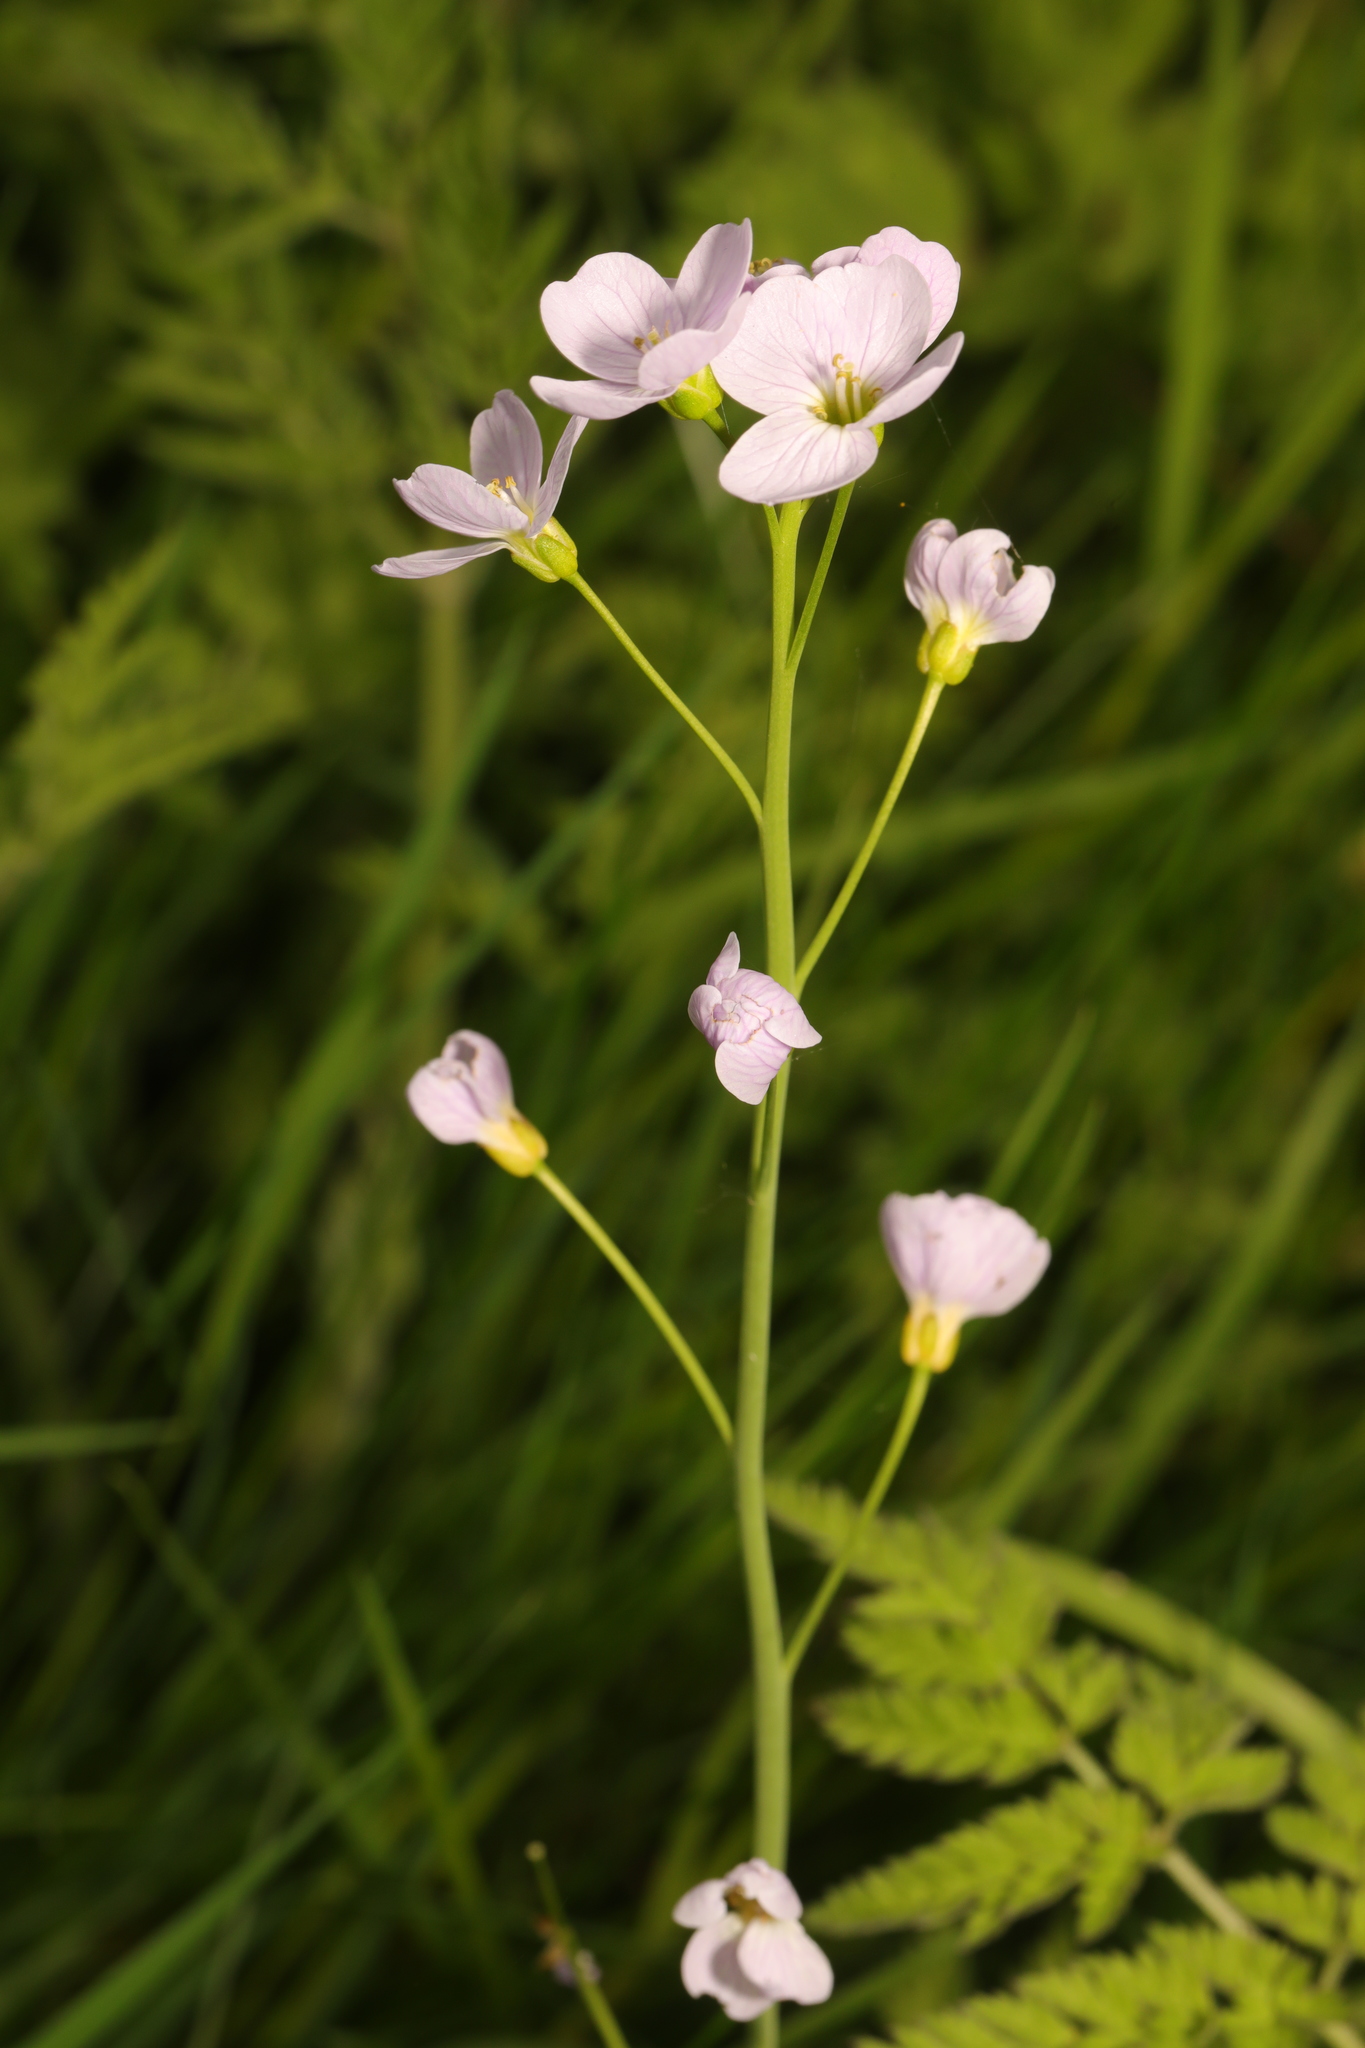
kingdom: Plantae
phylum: Tracheophyta
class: Magnoliopsida
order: Brassicales
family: Brassicaceae
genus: Cardamine
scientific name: Cardamine pratensis
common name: Cuckoo flower
